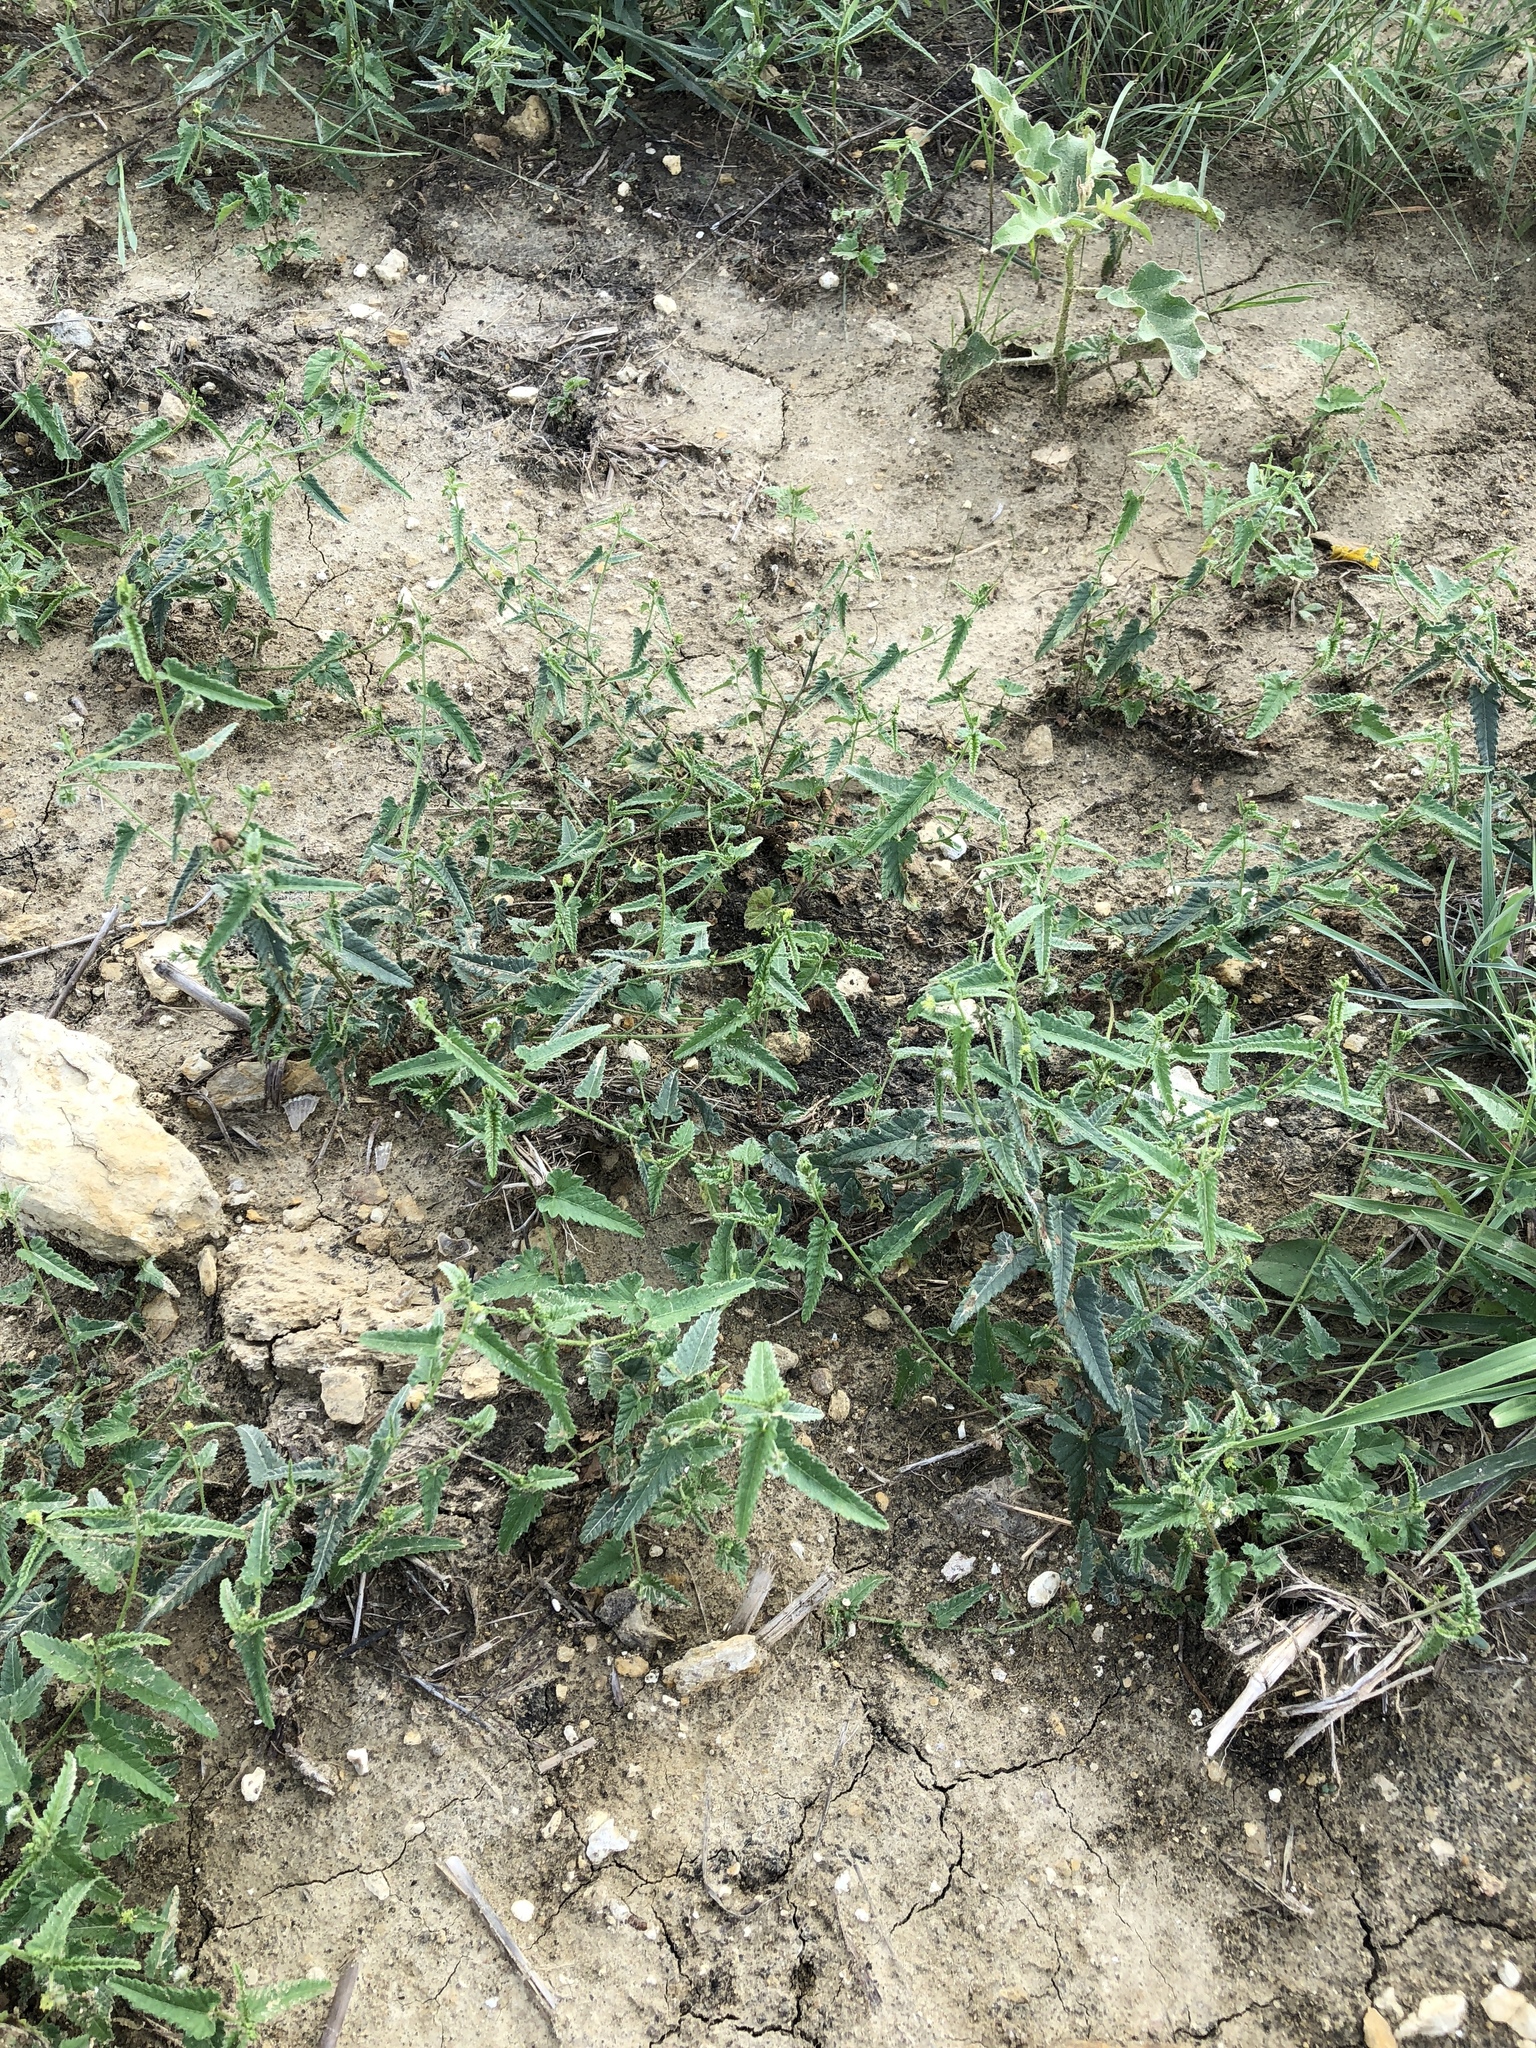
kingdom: Plantae
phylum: Tracheophyta
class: Magnoliopsida
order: Malpighiales
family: Euphorbiaceae
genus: Tragia
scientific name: Tragia ramosa
